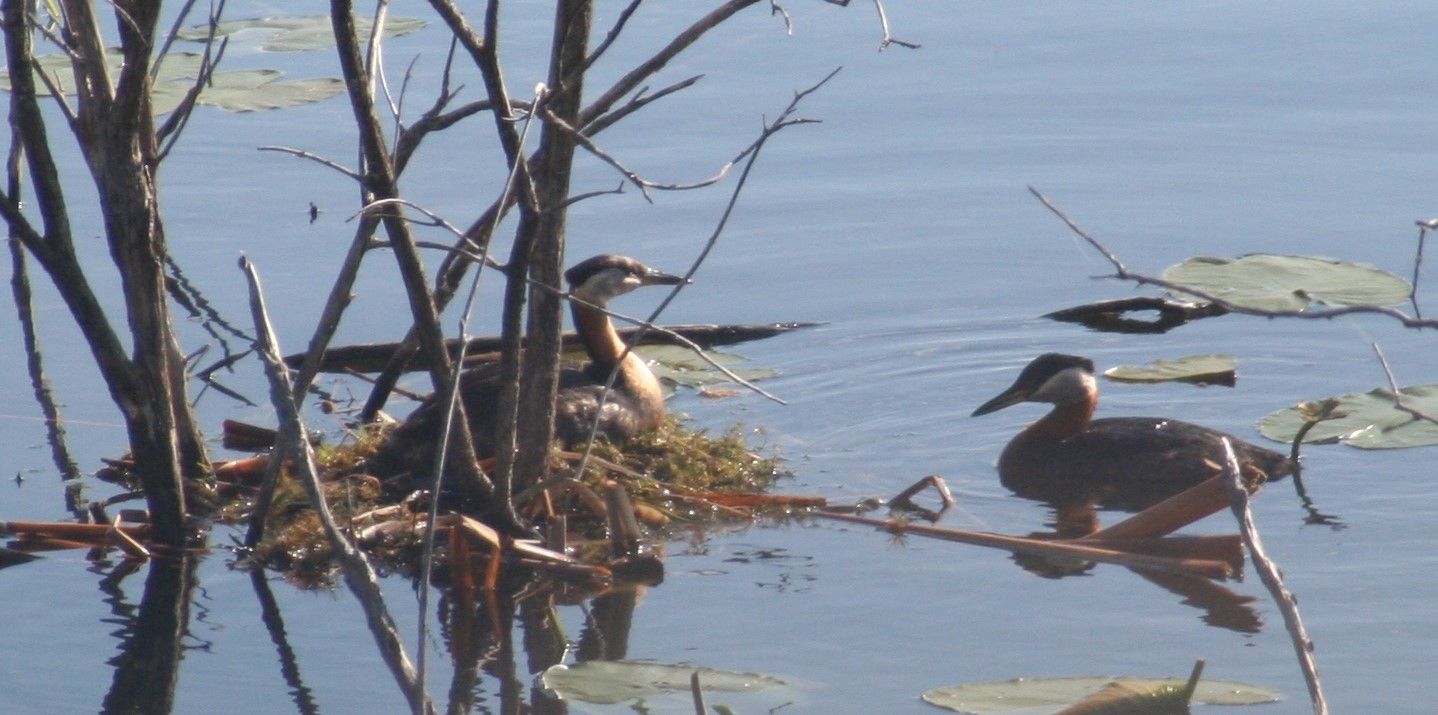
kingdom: Animalia
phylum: Chordata
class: Aves
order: Podicipediformes
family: Podicipedidae
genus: Podiceps
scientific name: Podiceps grisegena
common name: Red-necked grebe
